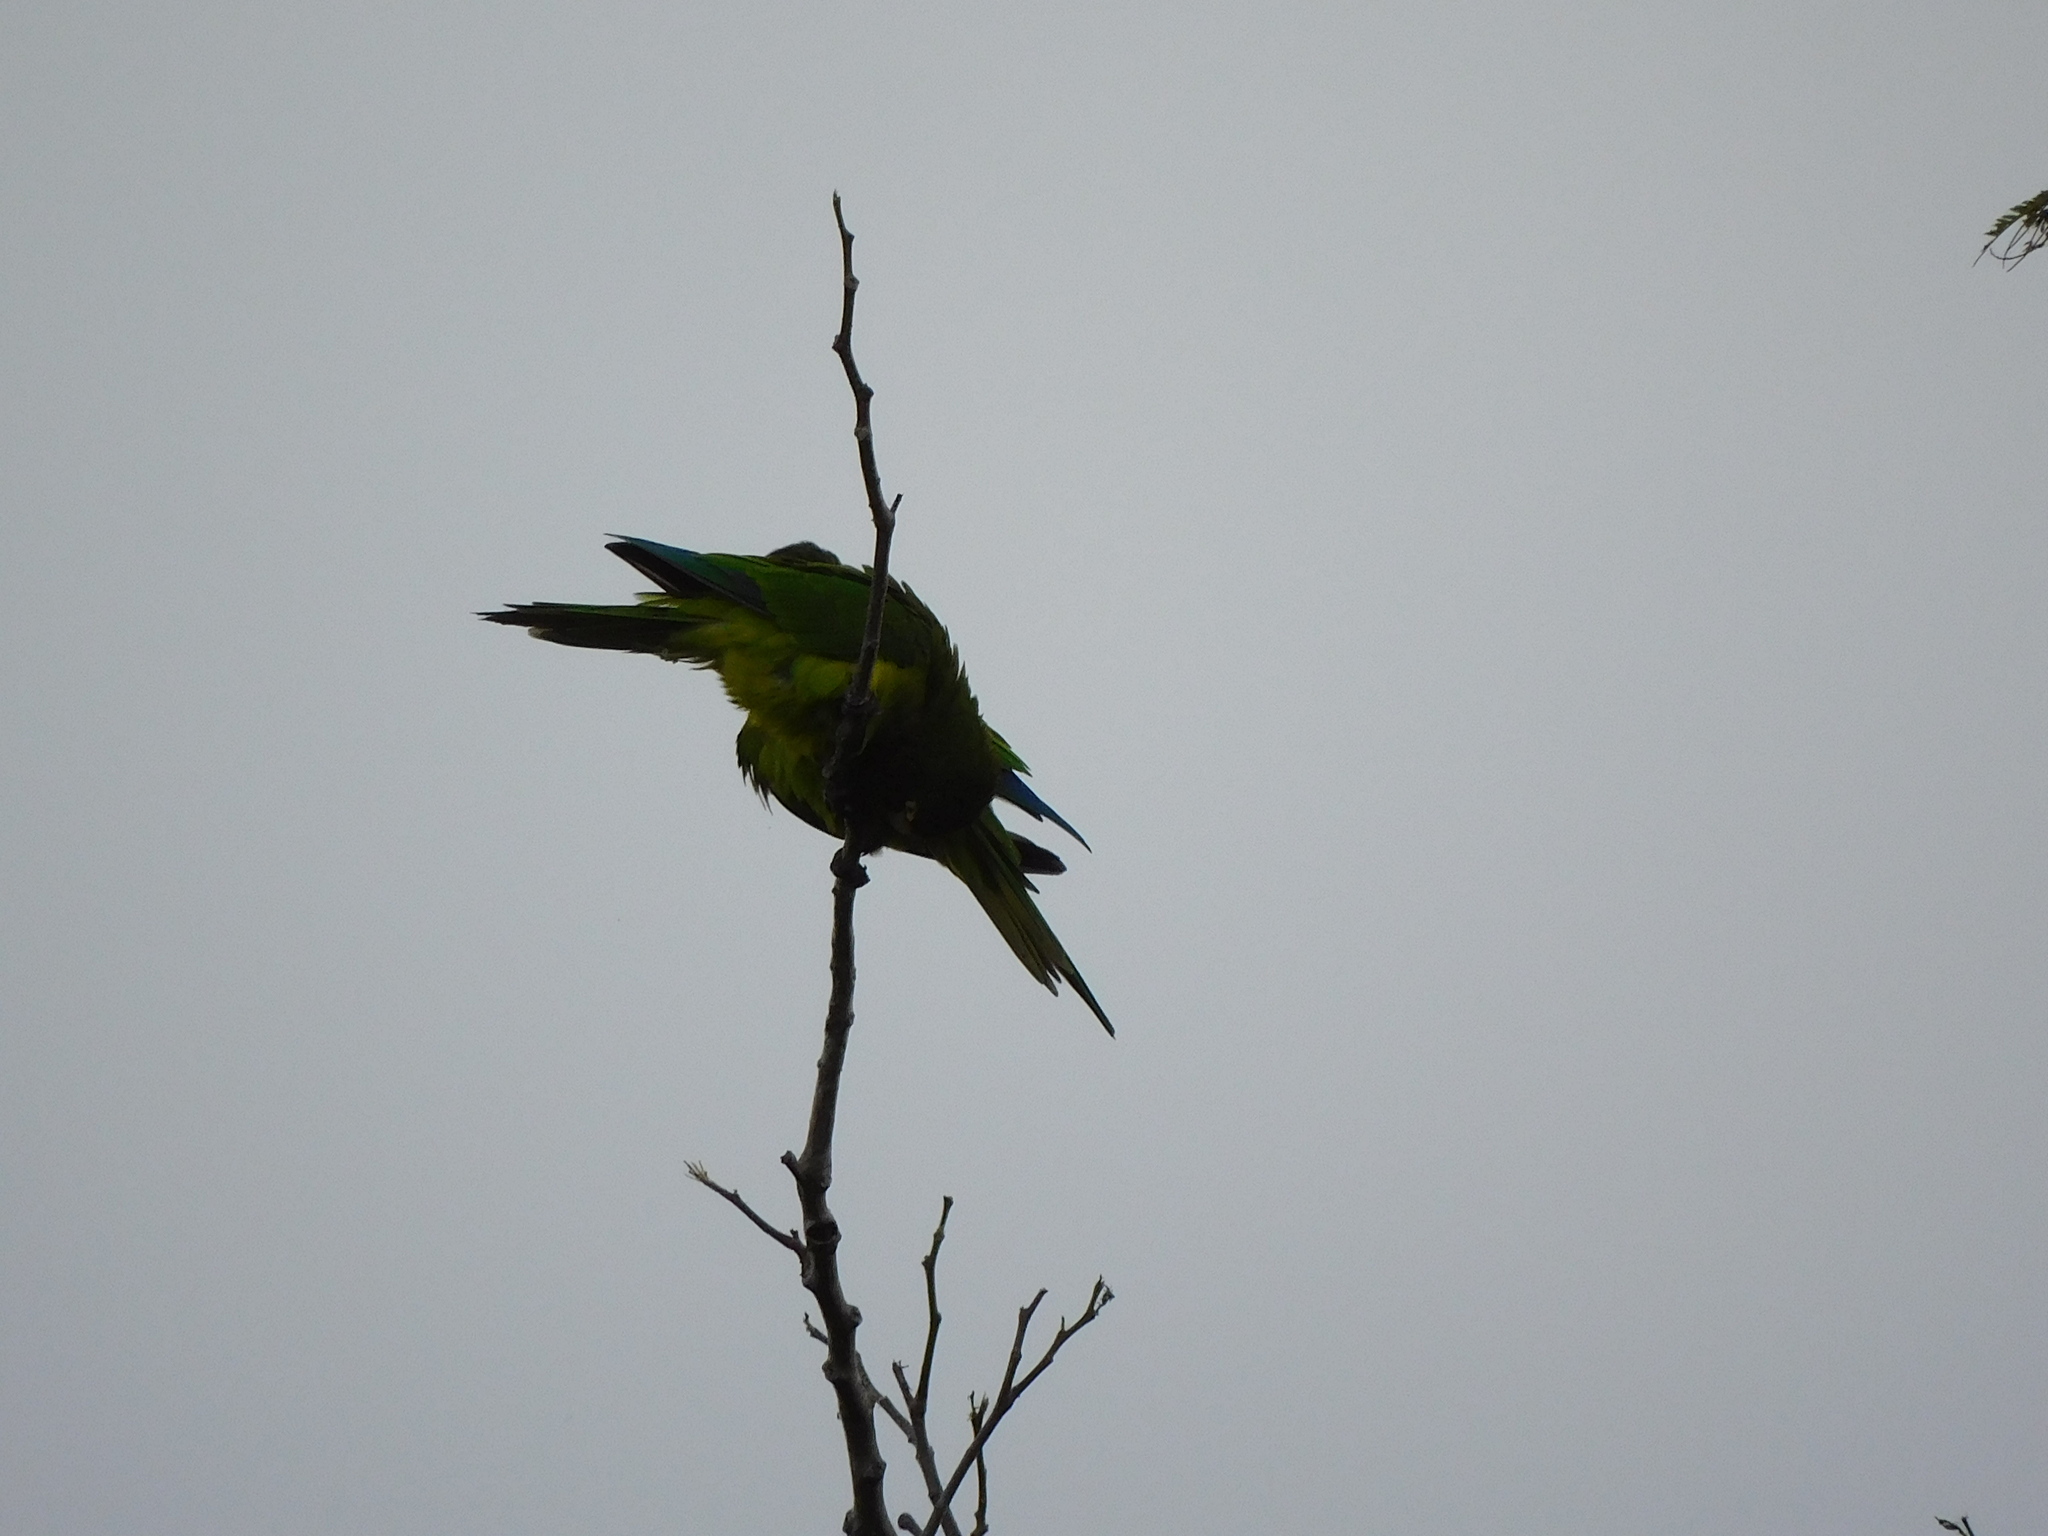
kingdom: Animalia
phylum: Chordata
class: Aves
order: Psittaciformes
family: Psittacidae
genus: Aratinga
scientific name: Aratinga canicularis
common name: Orange-fronted parakeet
